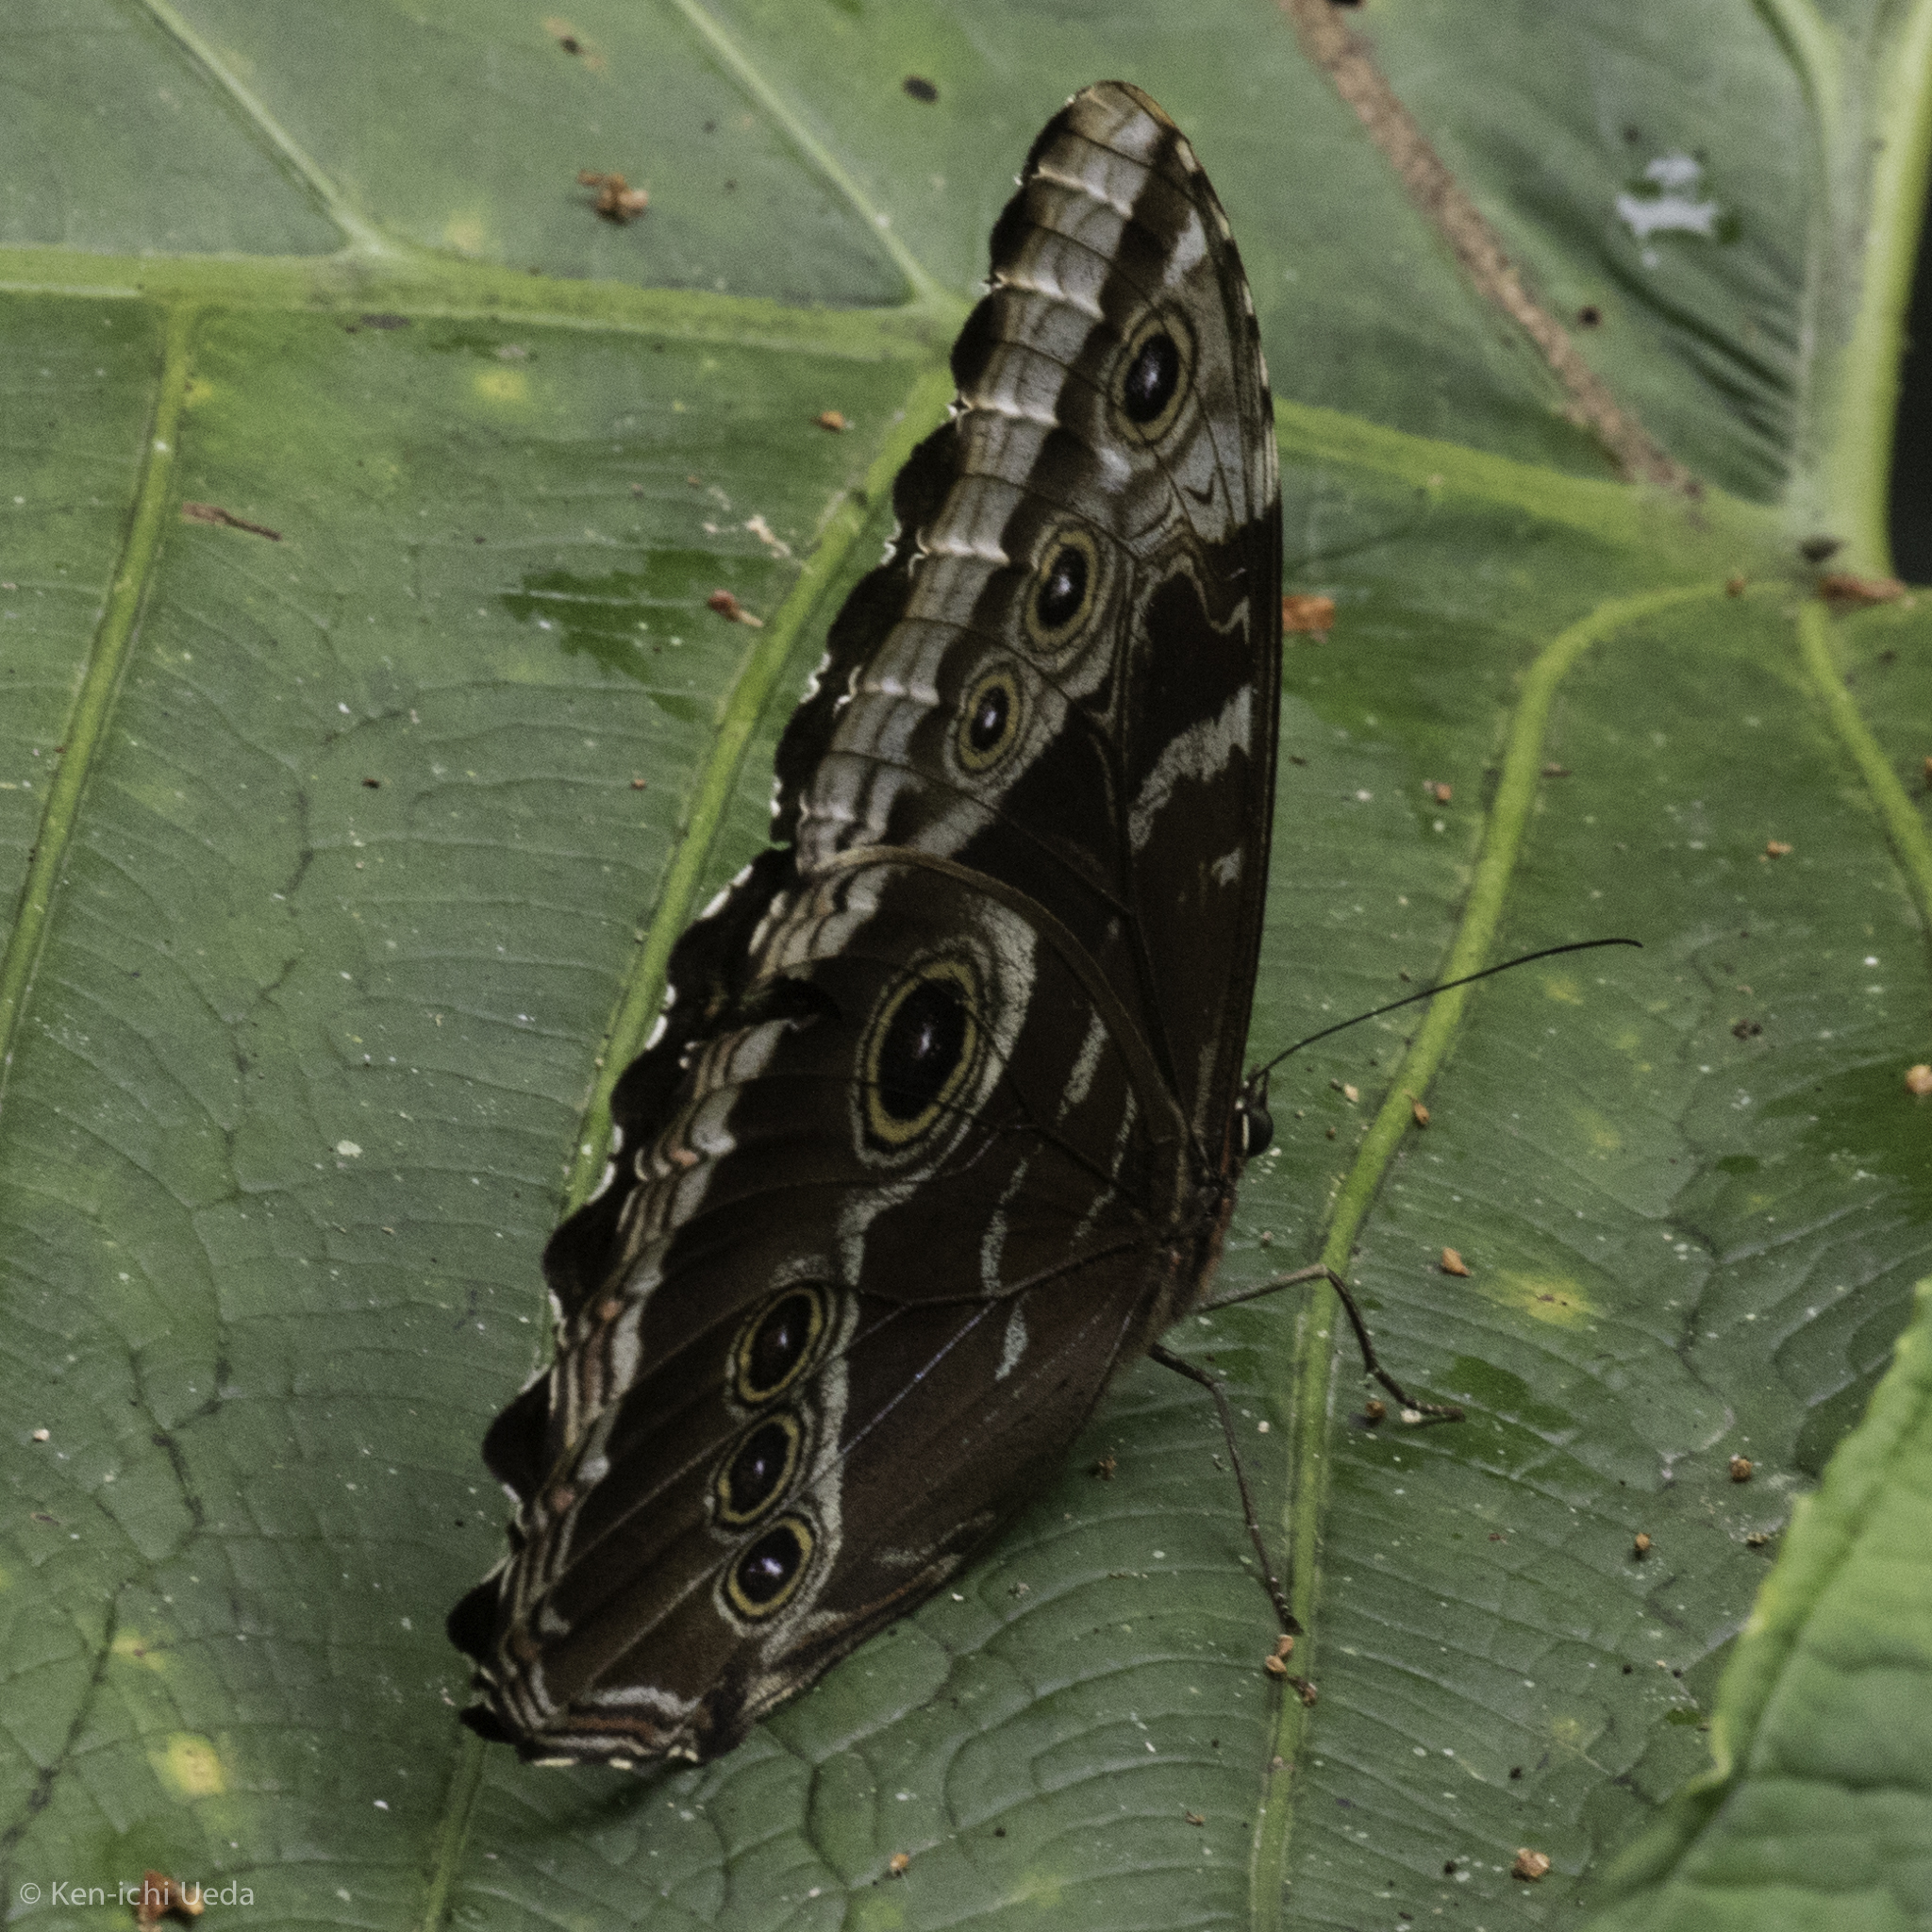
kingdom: Animalia
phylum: Arthropoda
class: Insecta
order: Lepidoptera
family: Nymphalidae
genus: Morpho
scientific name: Morpho helenor
